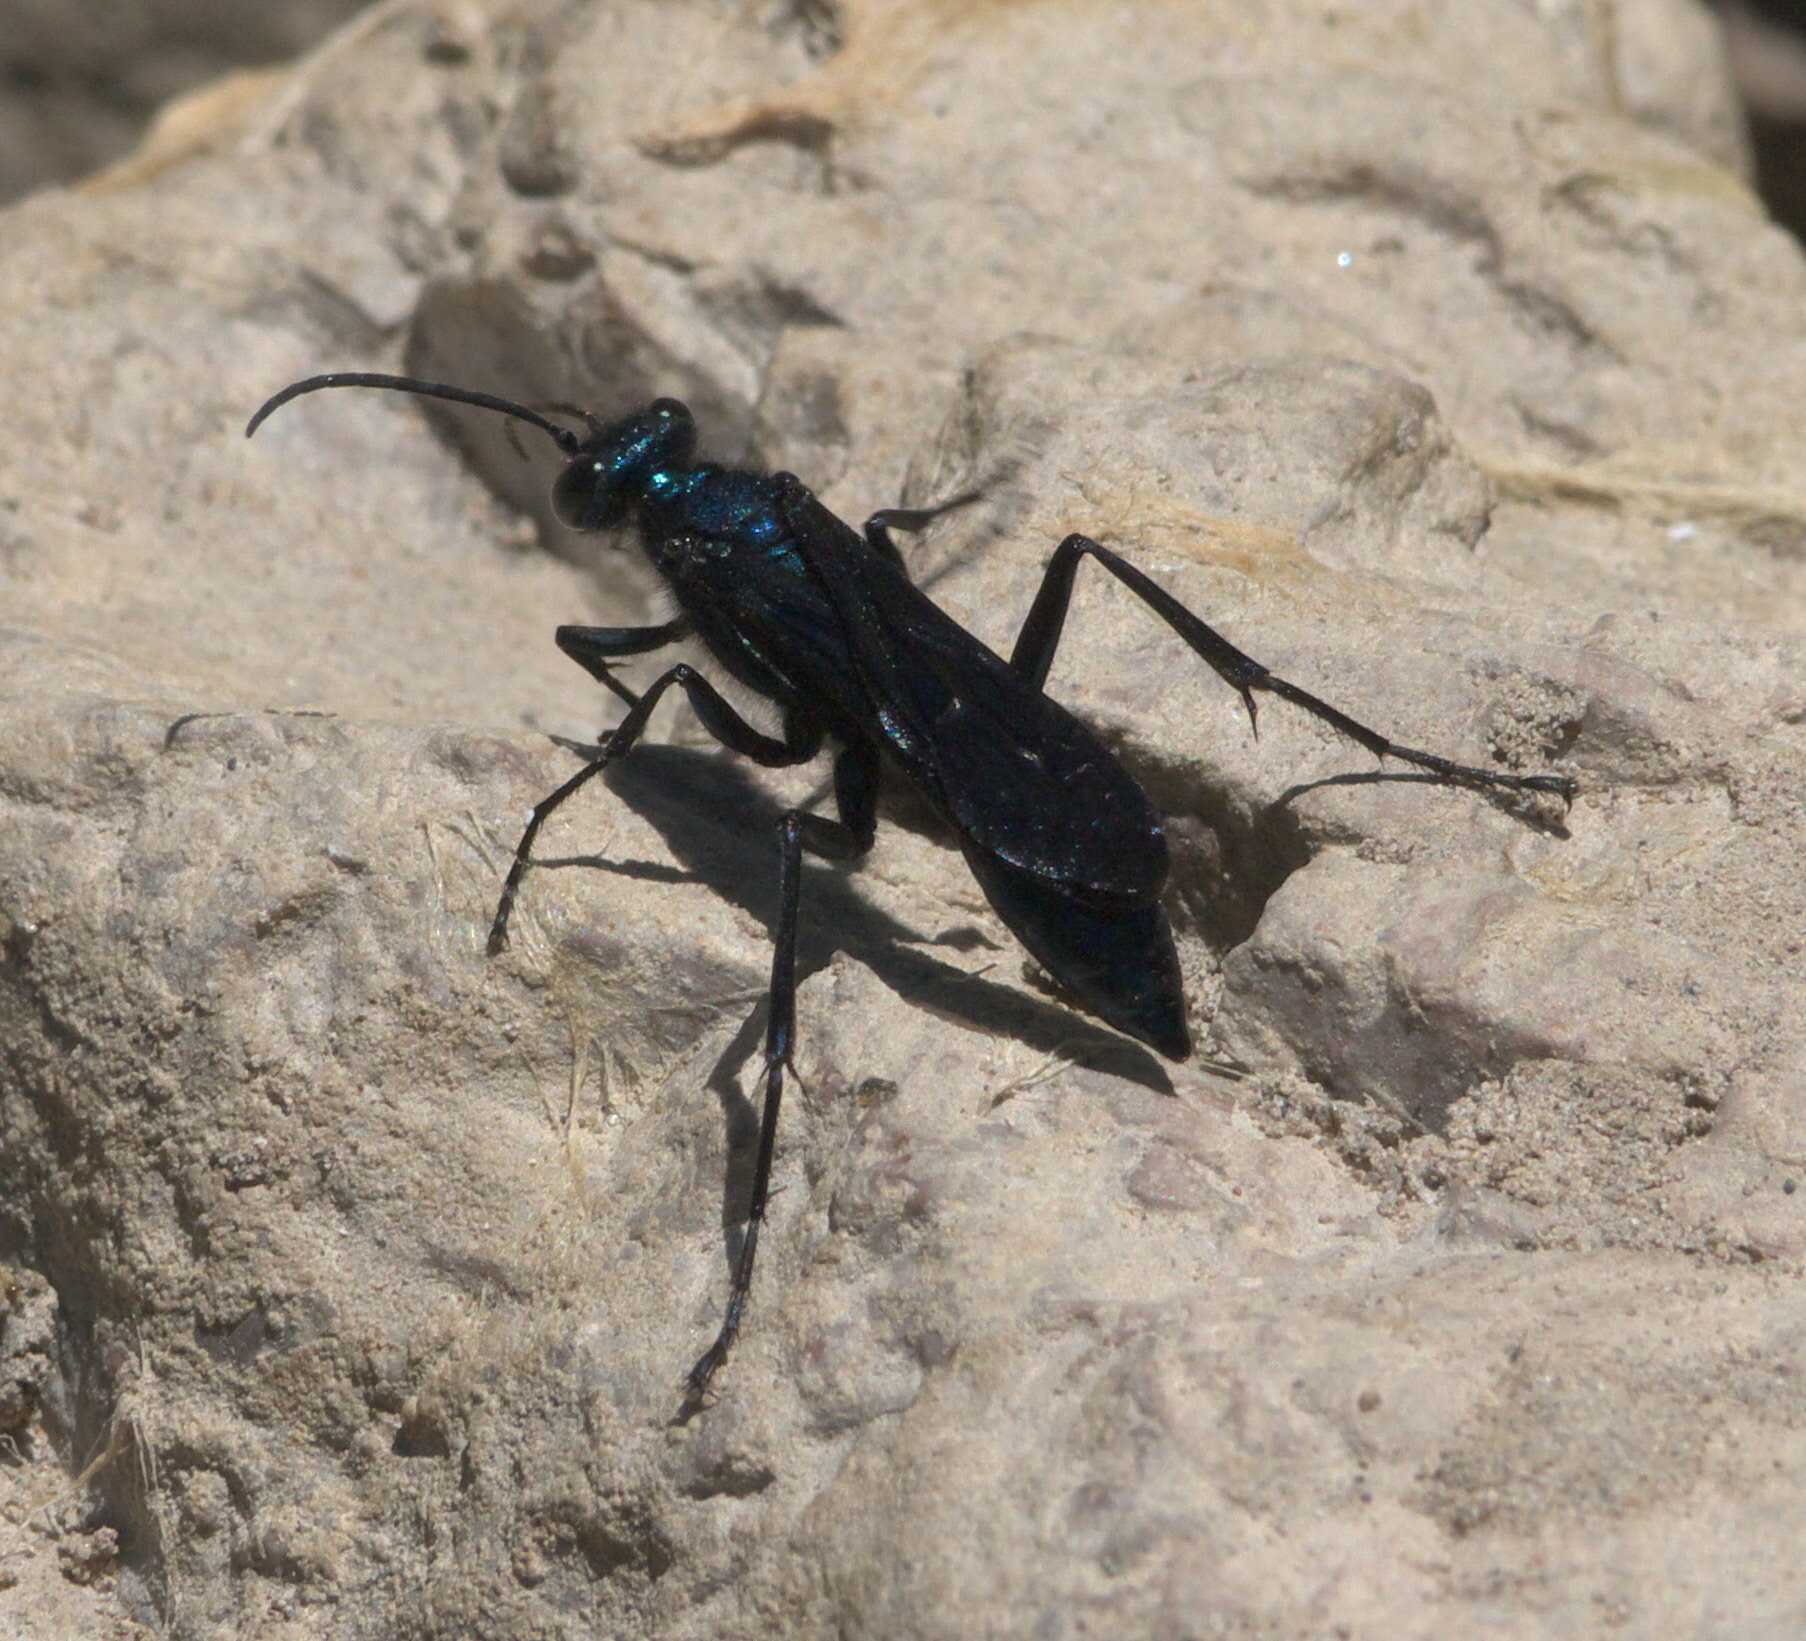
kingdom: Animalia
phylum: Arthropoda
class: Insecta
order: Hymenoptera
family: Sphecidae
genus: Chalybion
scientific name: Chalybion californicum
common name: Mud dauber
